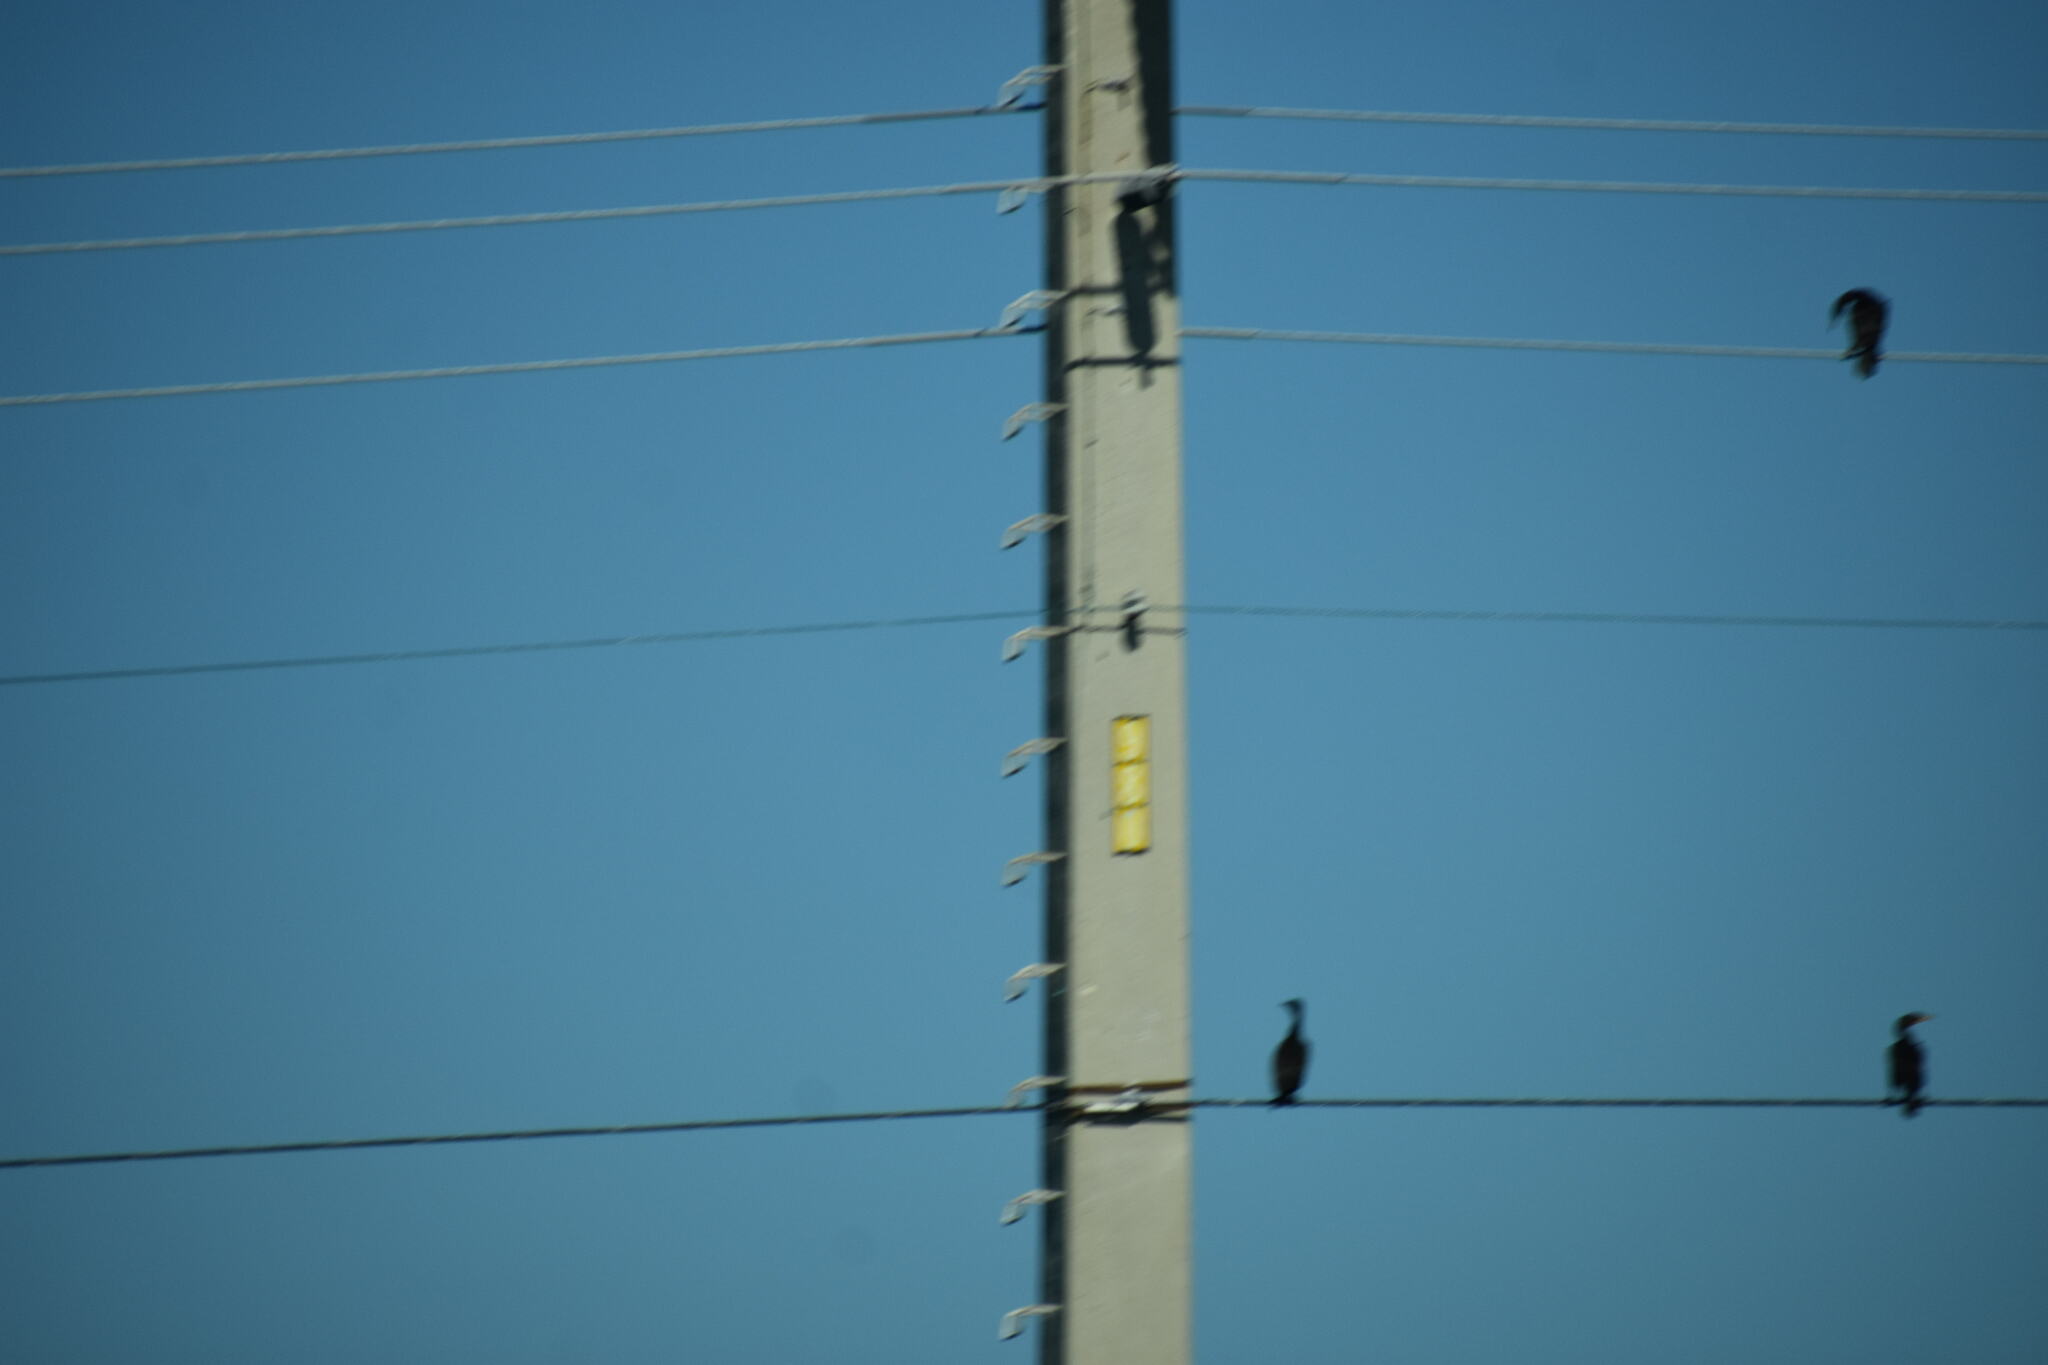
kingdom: Animalia
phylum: Chordata
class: Aves
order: Suliformes
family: Phalacrocoracidae
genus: Phalacrocorax
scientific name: Phalacrocorax auritus
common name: Double-crested cormorant
